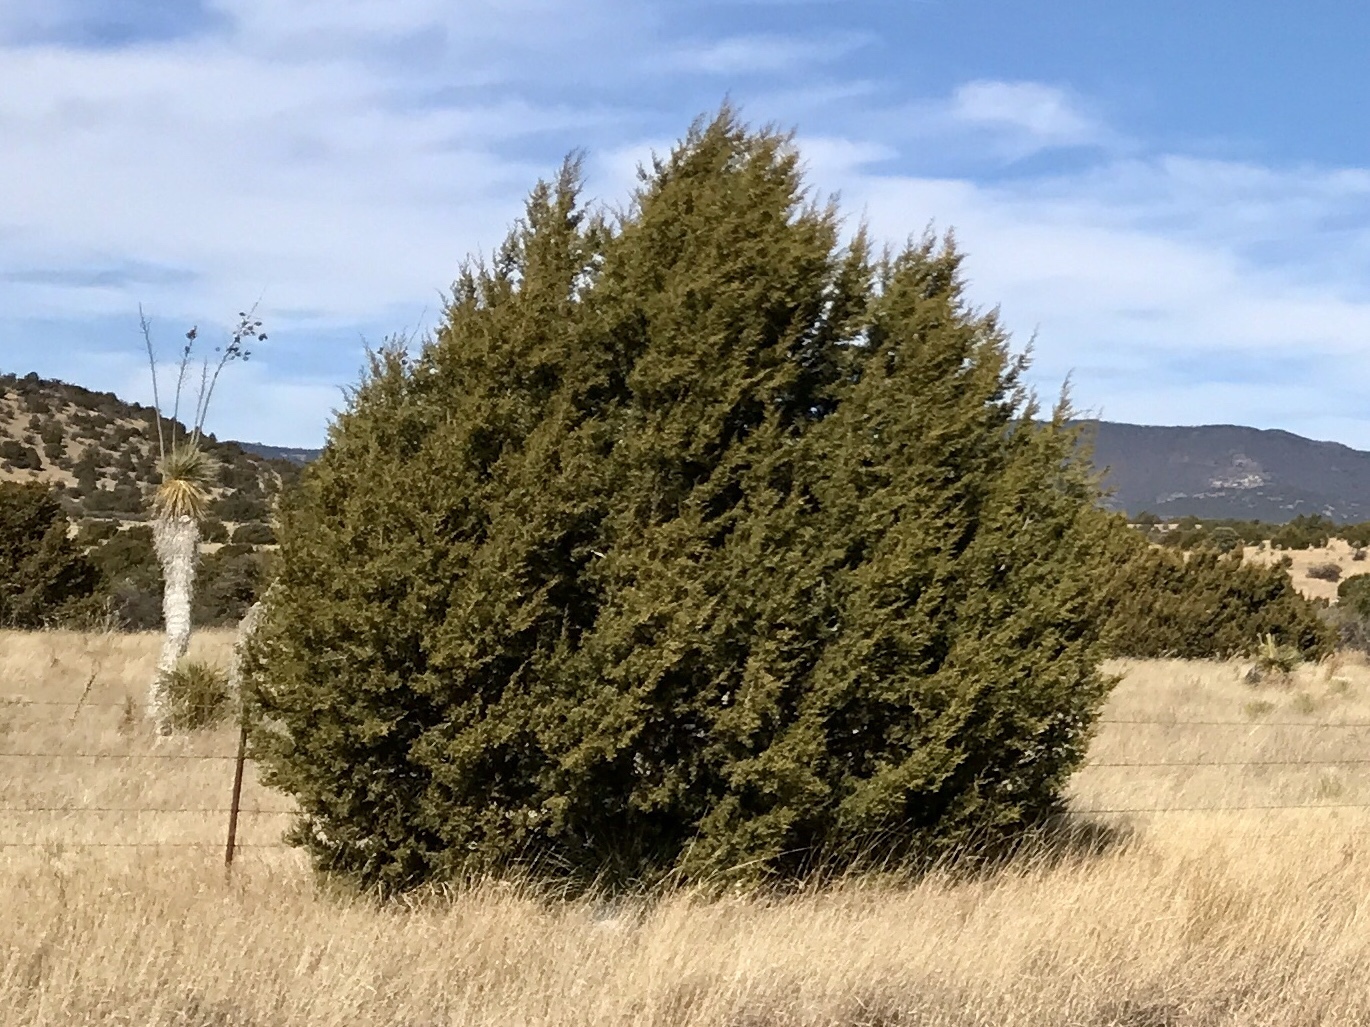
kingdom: Plantae
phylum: Tracheophyta
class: Pinopsida
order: Pinales
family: Cupressaceae
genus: Juniperus
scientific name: Juniperus deppeana
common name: Alligator juniper
